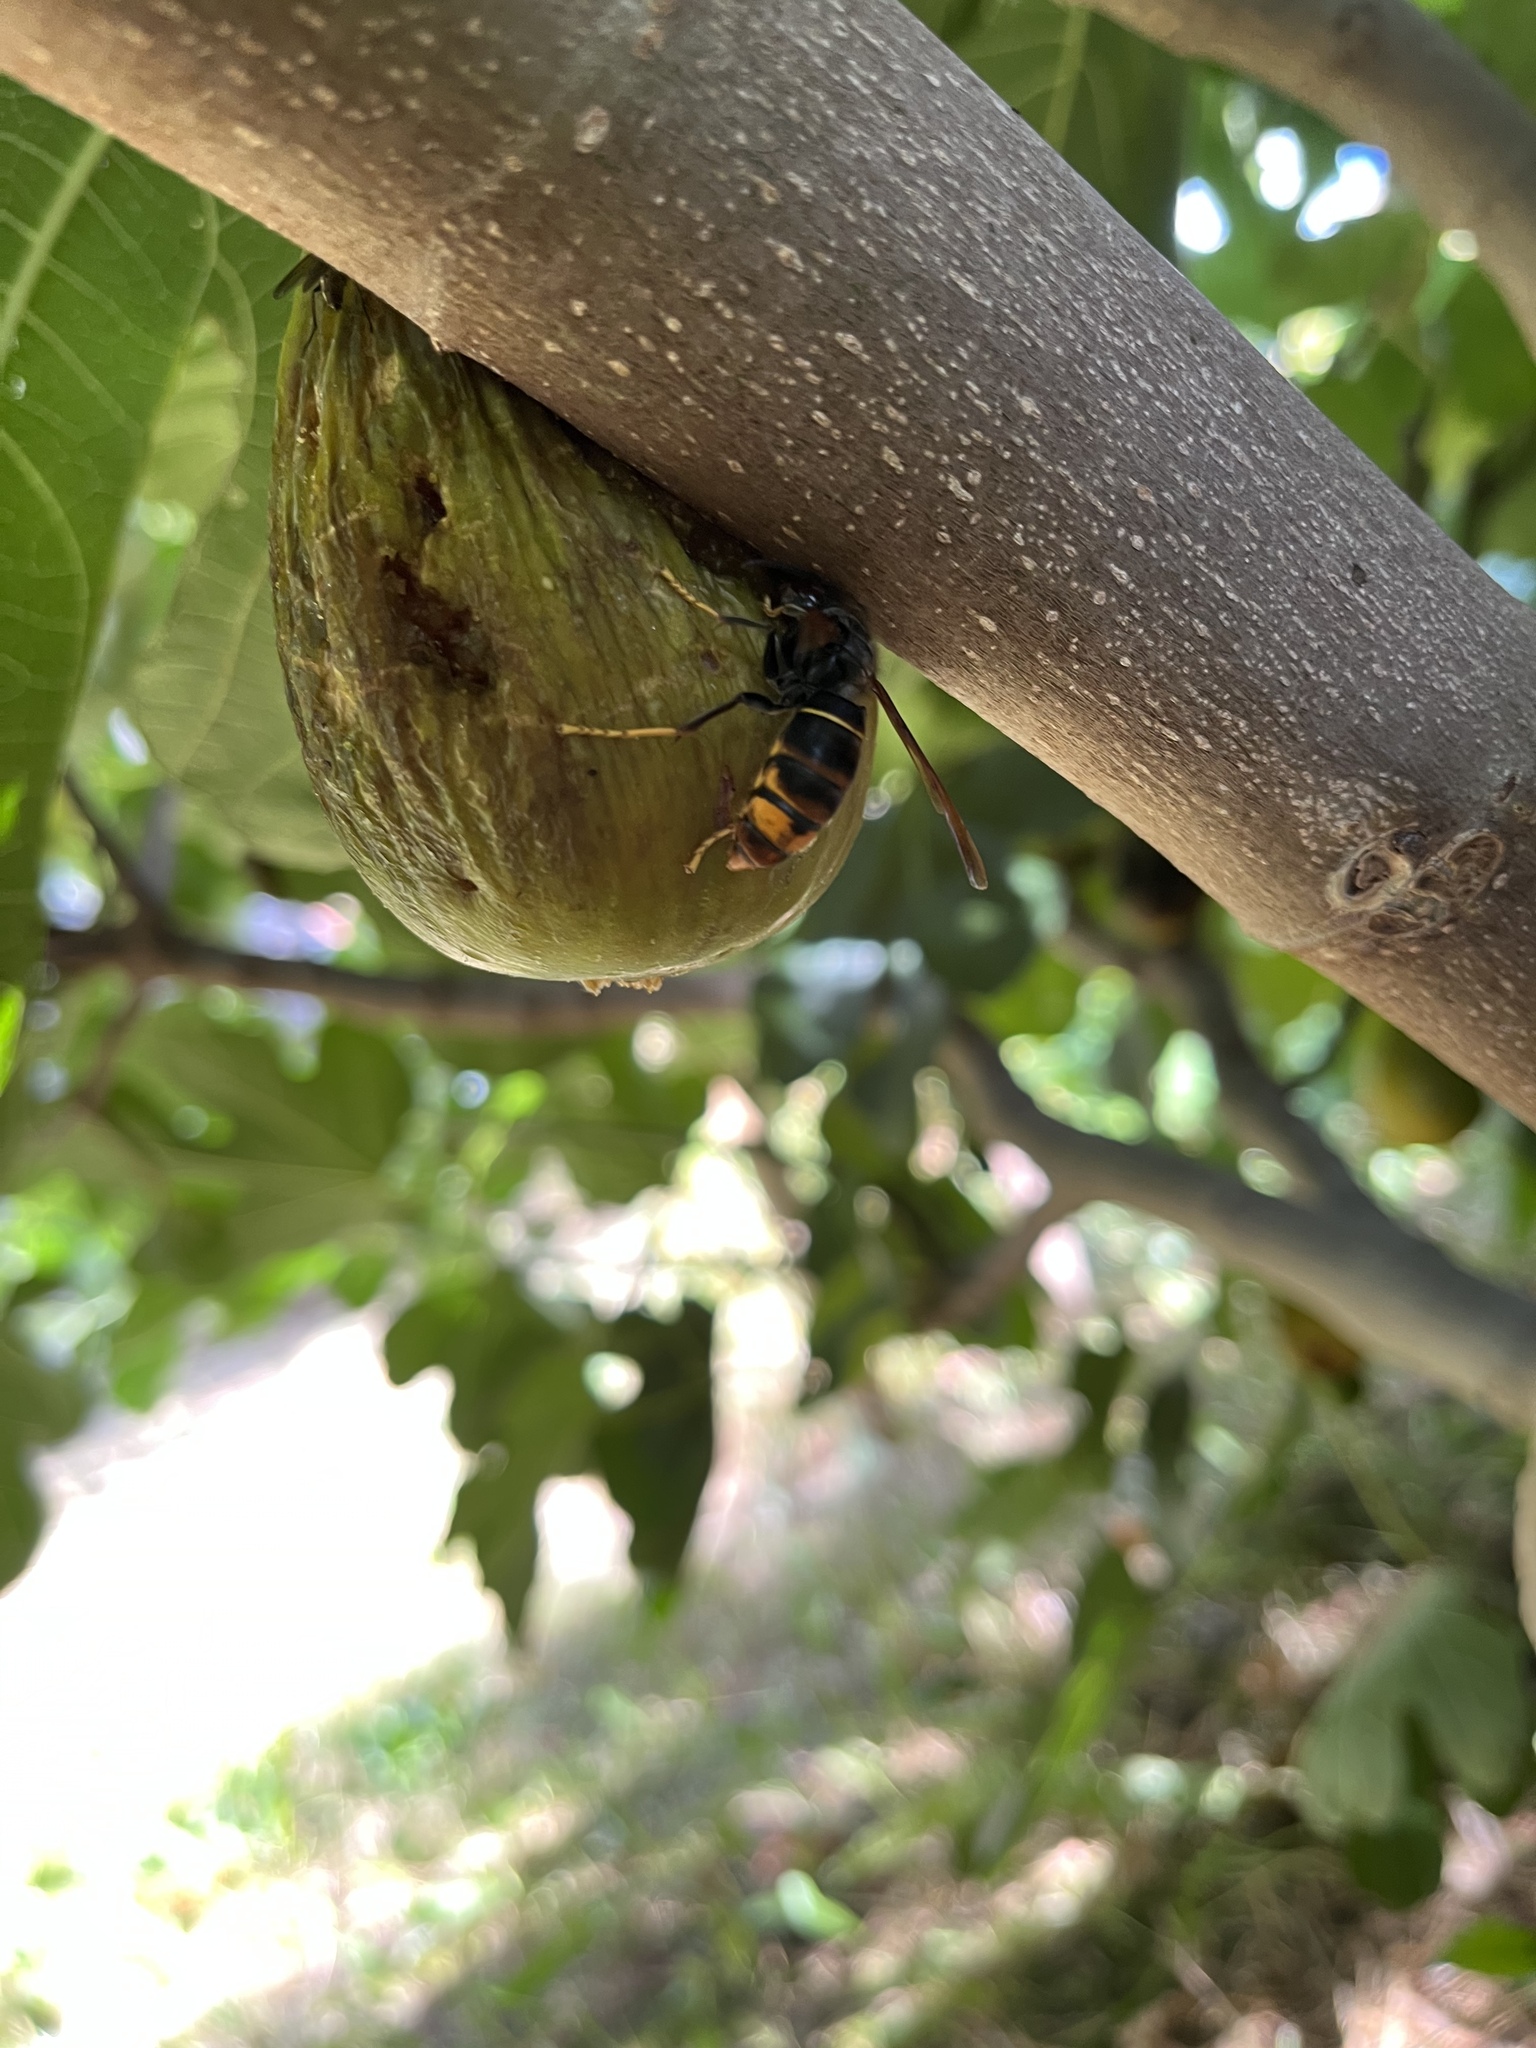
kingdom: Animalia
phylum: Arthropoda
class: Insecta
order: Hymenoptera
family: Vespidae
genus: Vespa
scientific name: Vespa velutina
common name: Asian hornet
